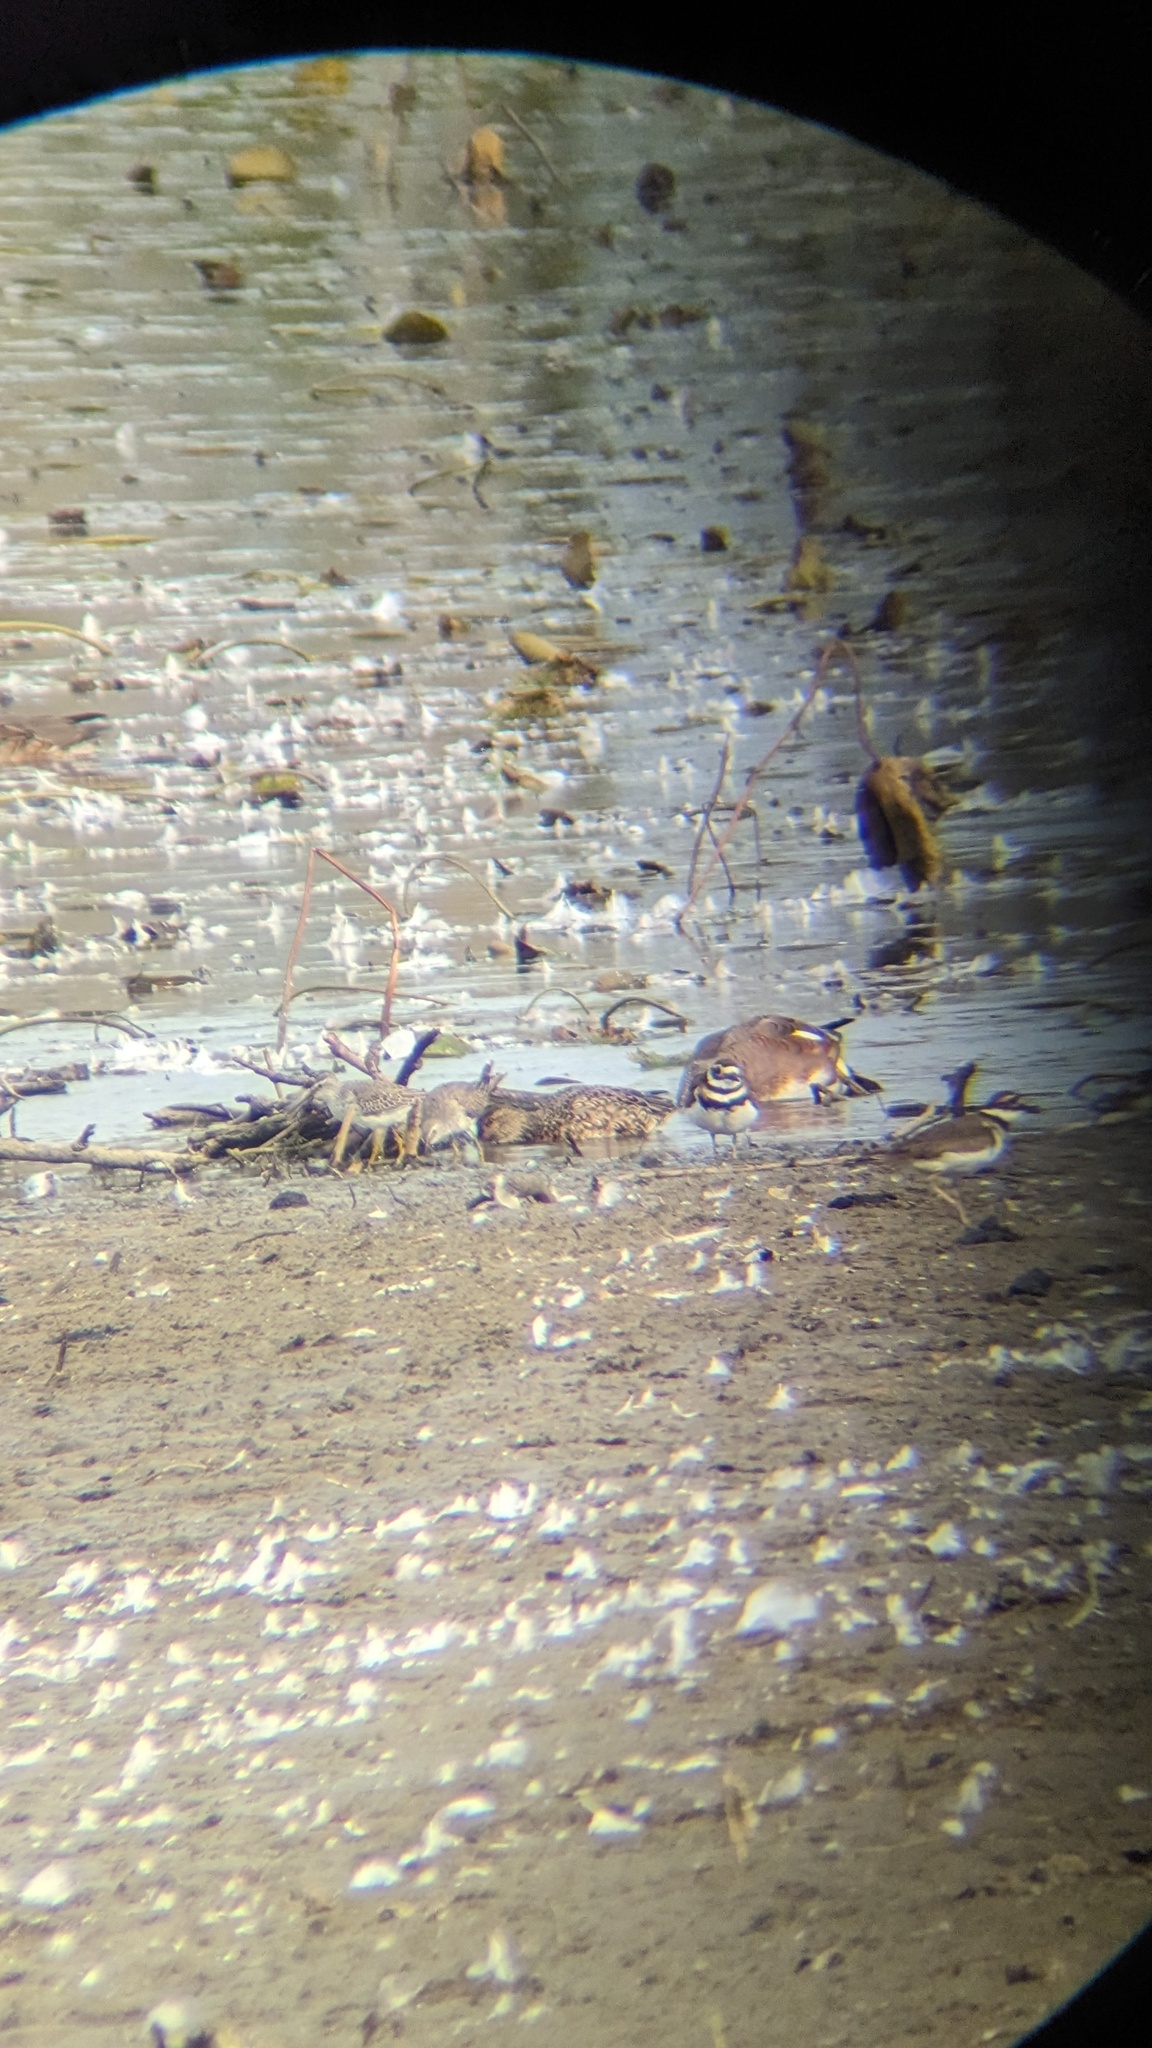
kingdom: Animalia
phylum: Chordata
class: Aves
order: Charadriiformes
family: Scolopacidae
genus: Calidris
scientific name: Calidris himantopus
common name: Stilt sandpiper
